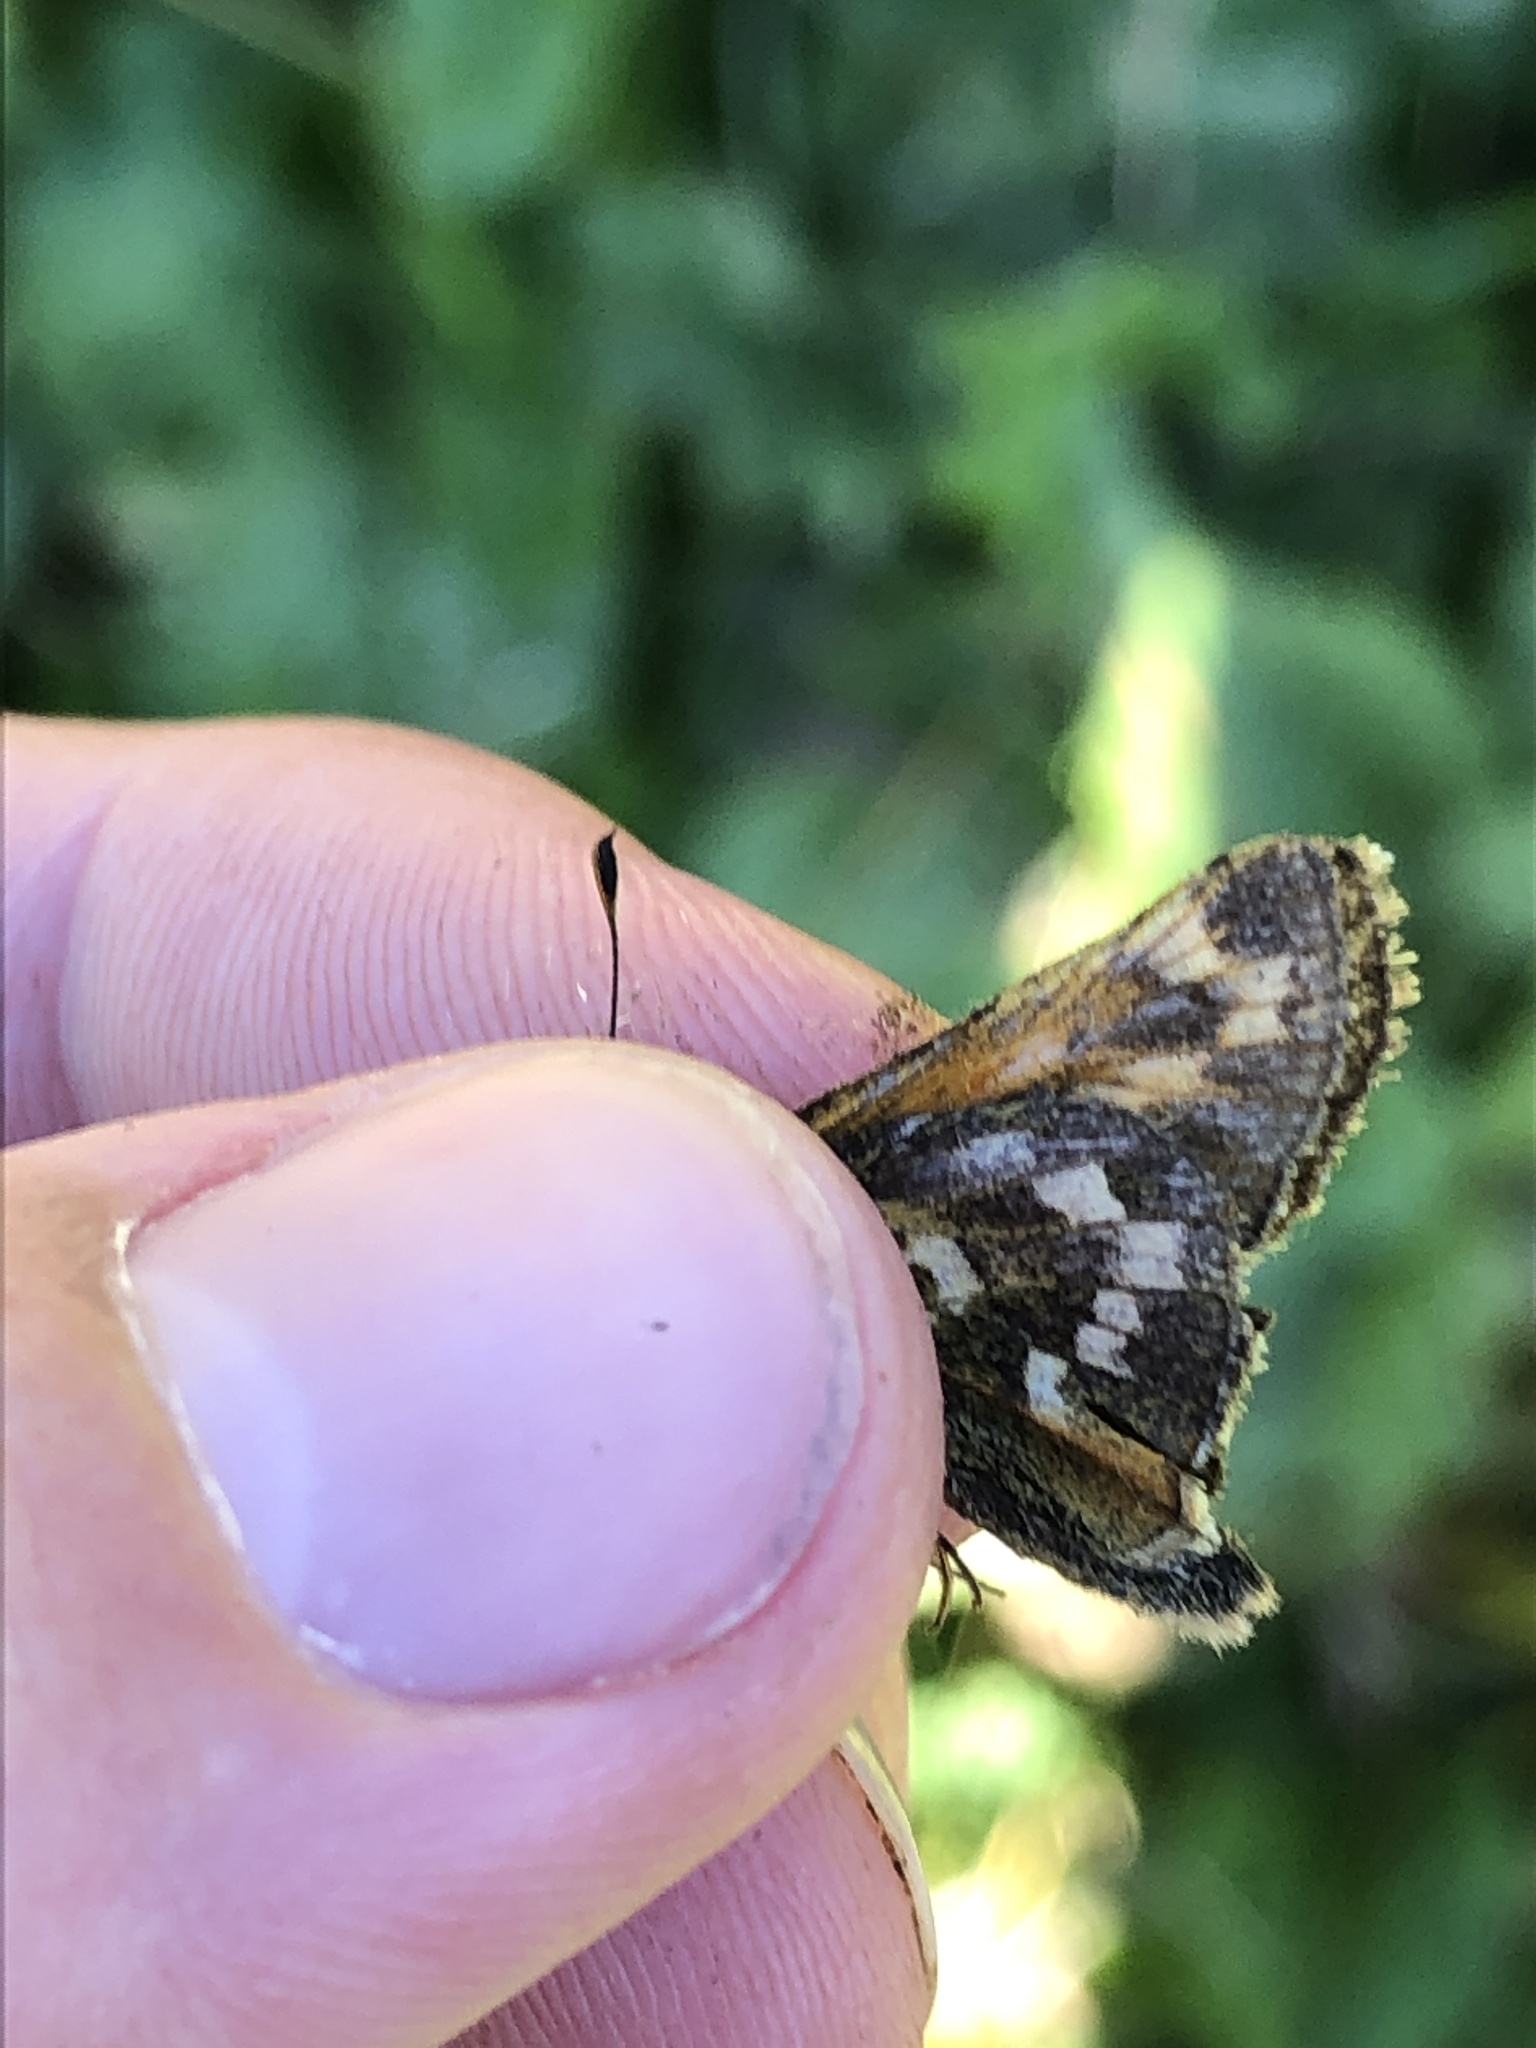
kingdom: Animalia
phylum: Arthropoda
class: Insecta
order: Lepidoptera
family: Hesperiidae
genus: Hesperia
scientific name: Hesperia comma
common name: Common branded skipper
